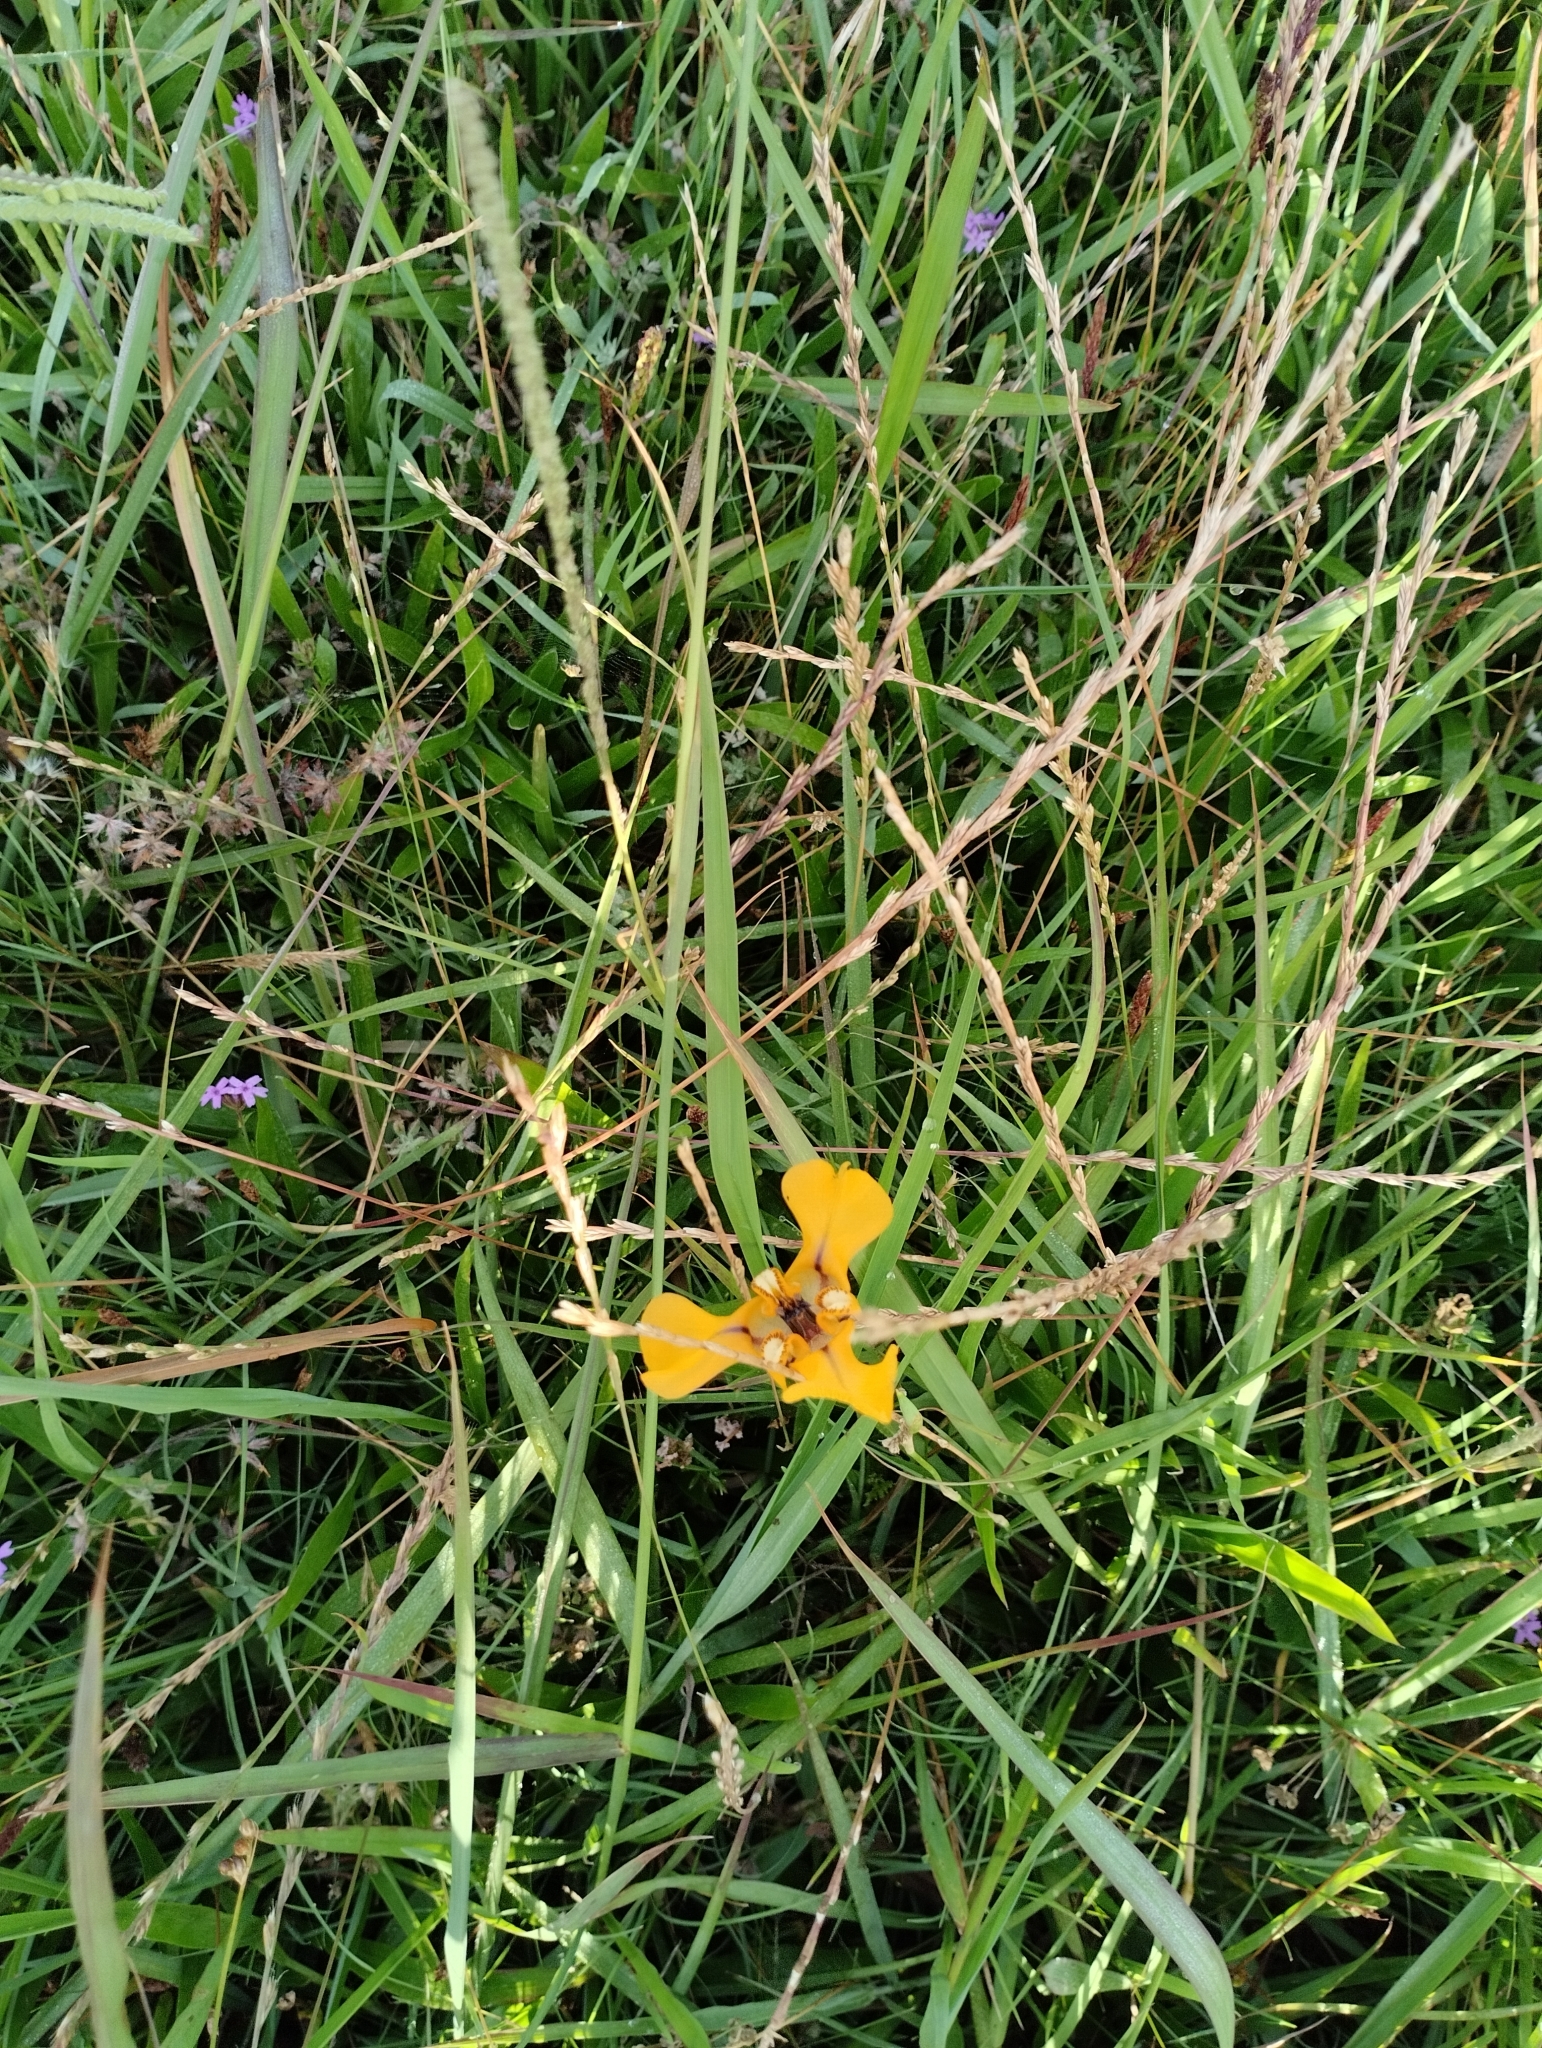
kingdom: Plantae
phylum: Tracheophyta
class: Liliopsida
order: Asparagales
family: Iridaceae
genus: Cypella
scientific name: Cypella herbertii
